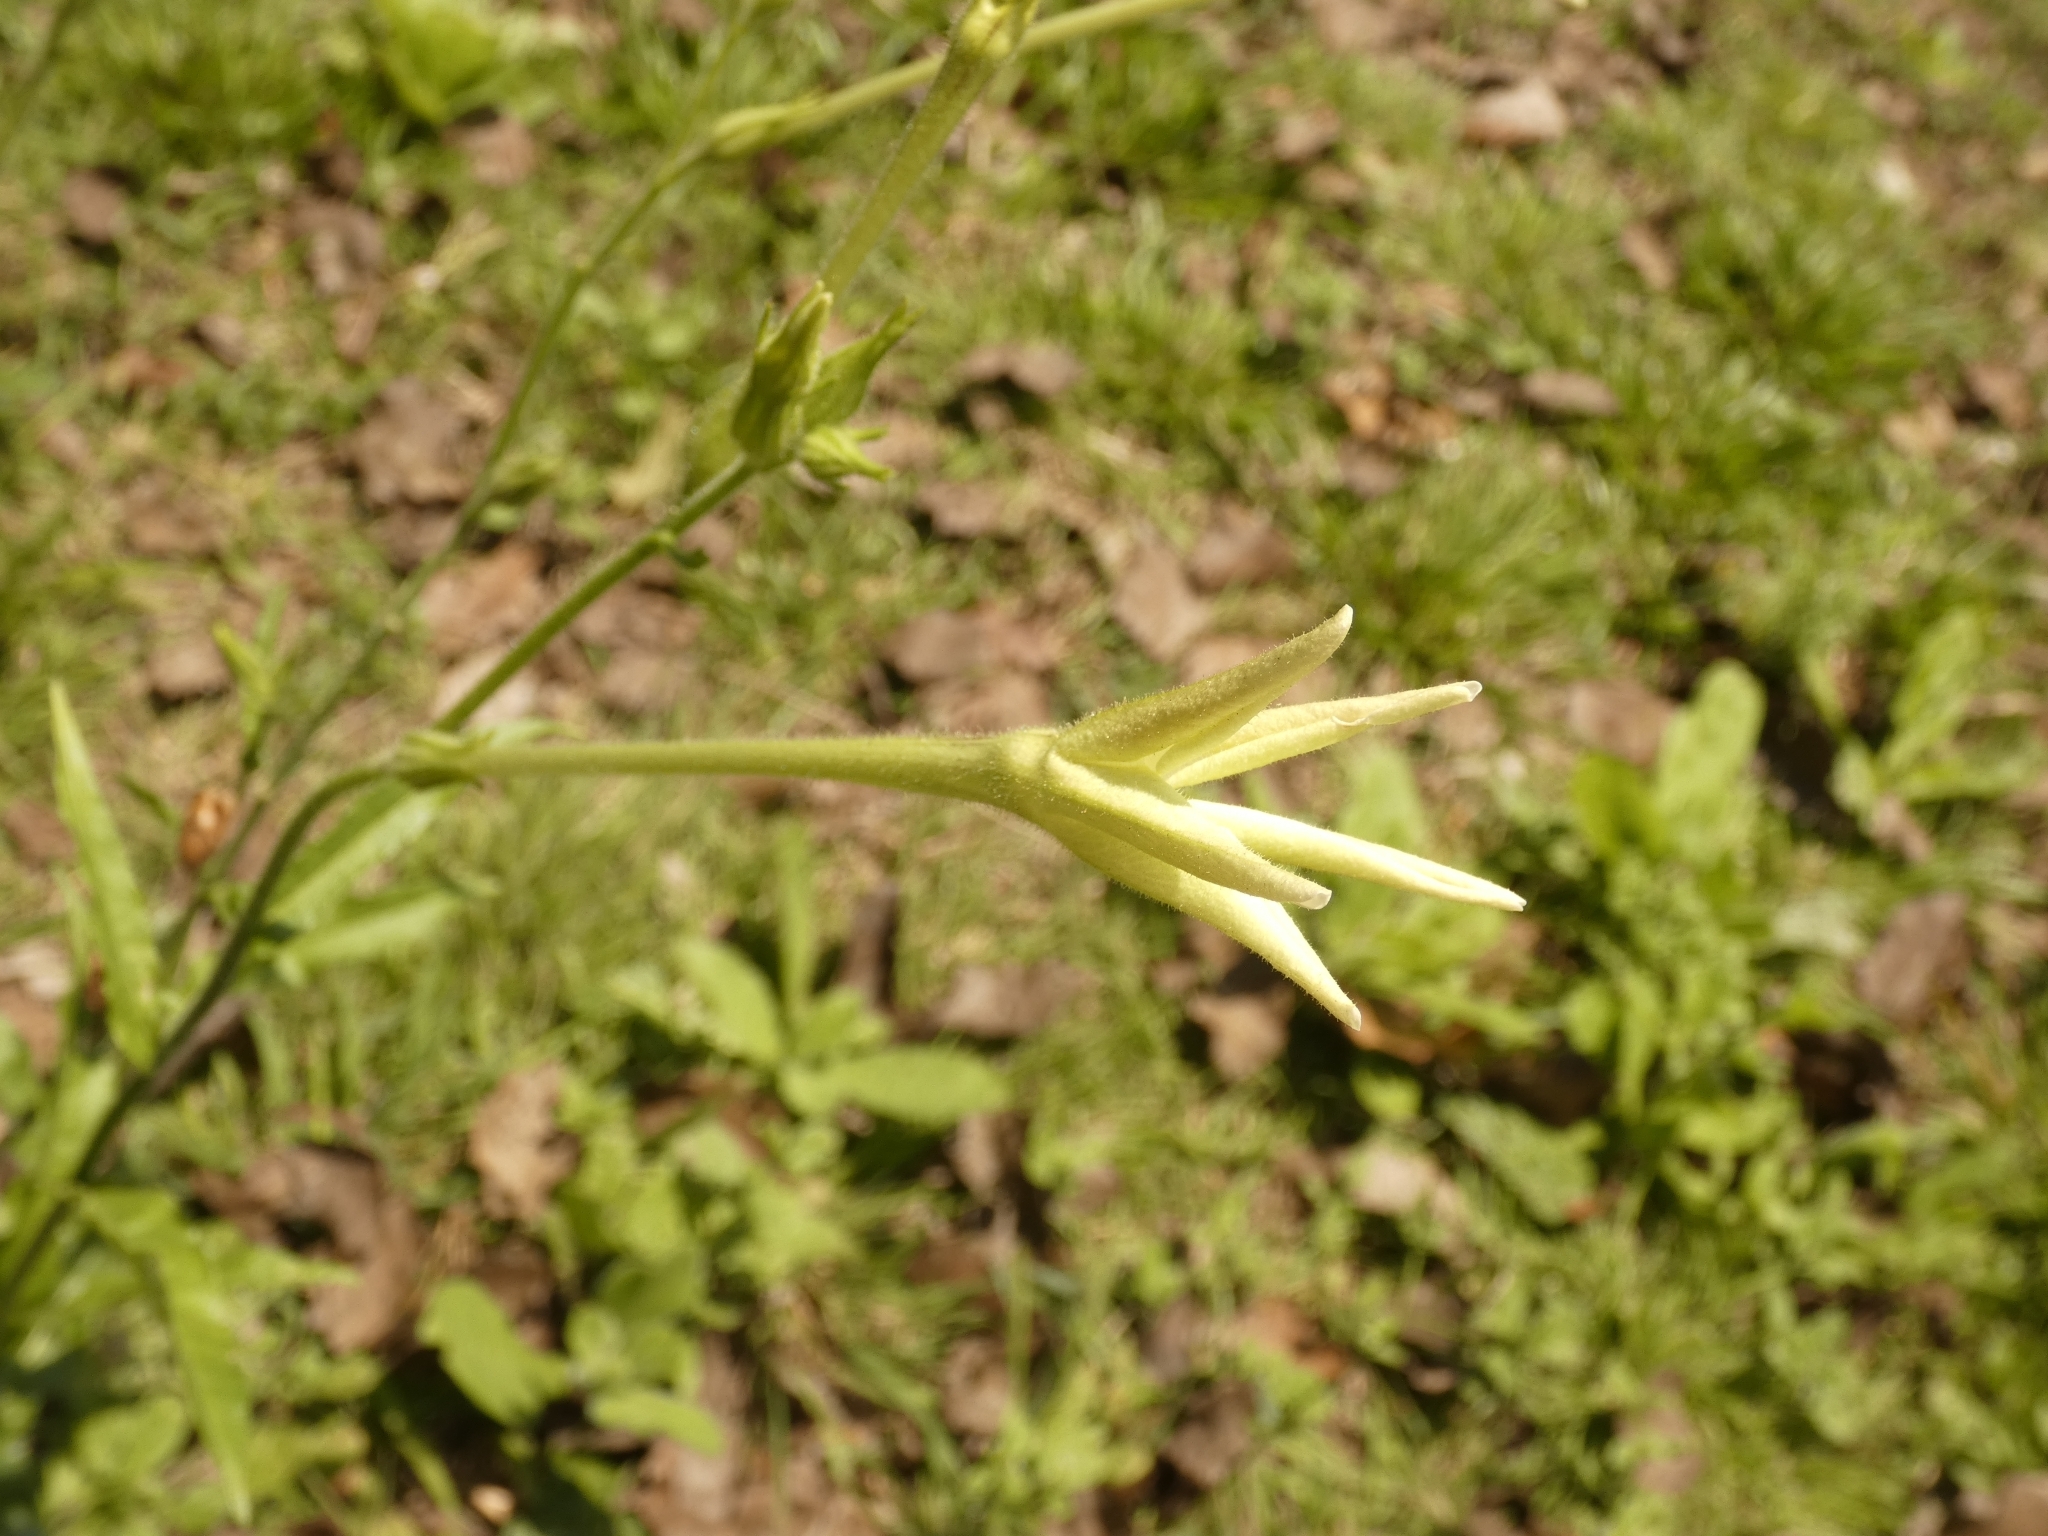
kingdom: Plantae
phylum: Tracheophyta
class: Magnoliopsida
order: Solanales
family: Solanaceae
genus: Nicotiana
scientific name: Nicotiana longiflora
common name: Long-flowered tobacco
